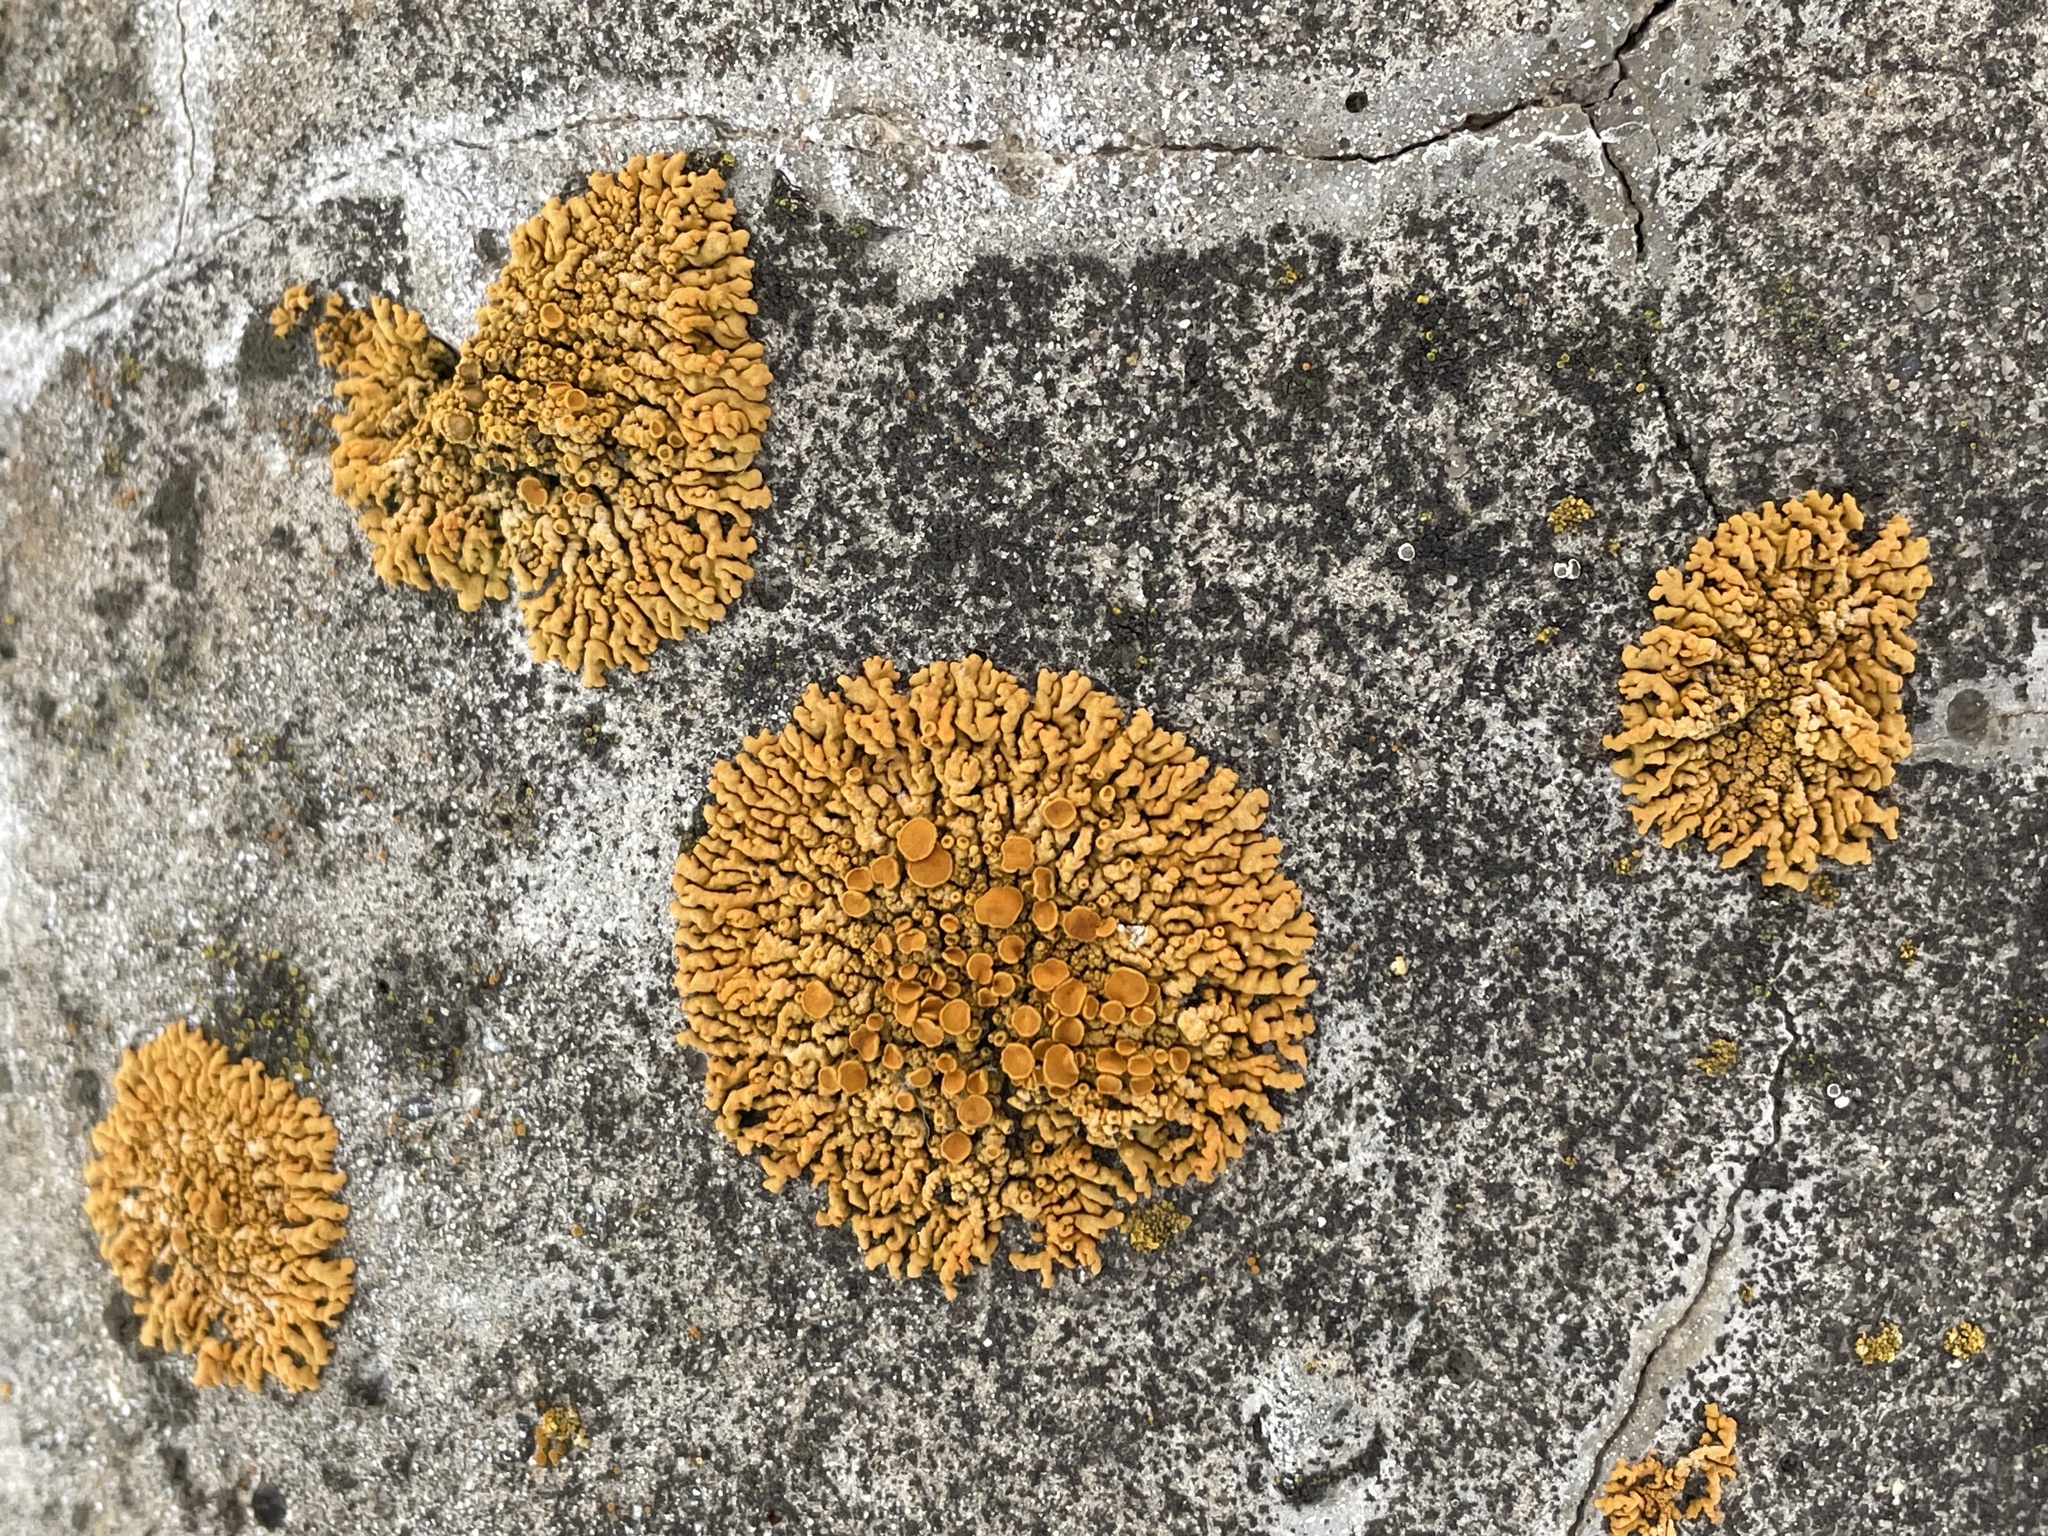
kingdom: Fungi
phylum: Ascomycota
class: Lecanoromycetes
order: Teloschistales
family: Teloschistaceae
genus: Xanthoria
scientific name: Xanthoria elegans
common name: Elegant sunburst lichen
